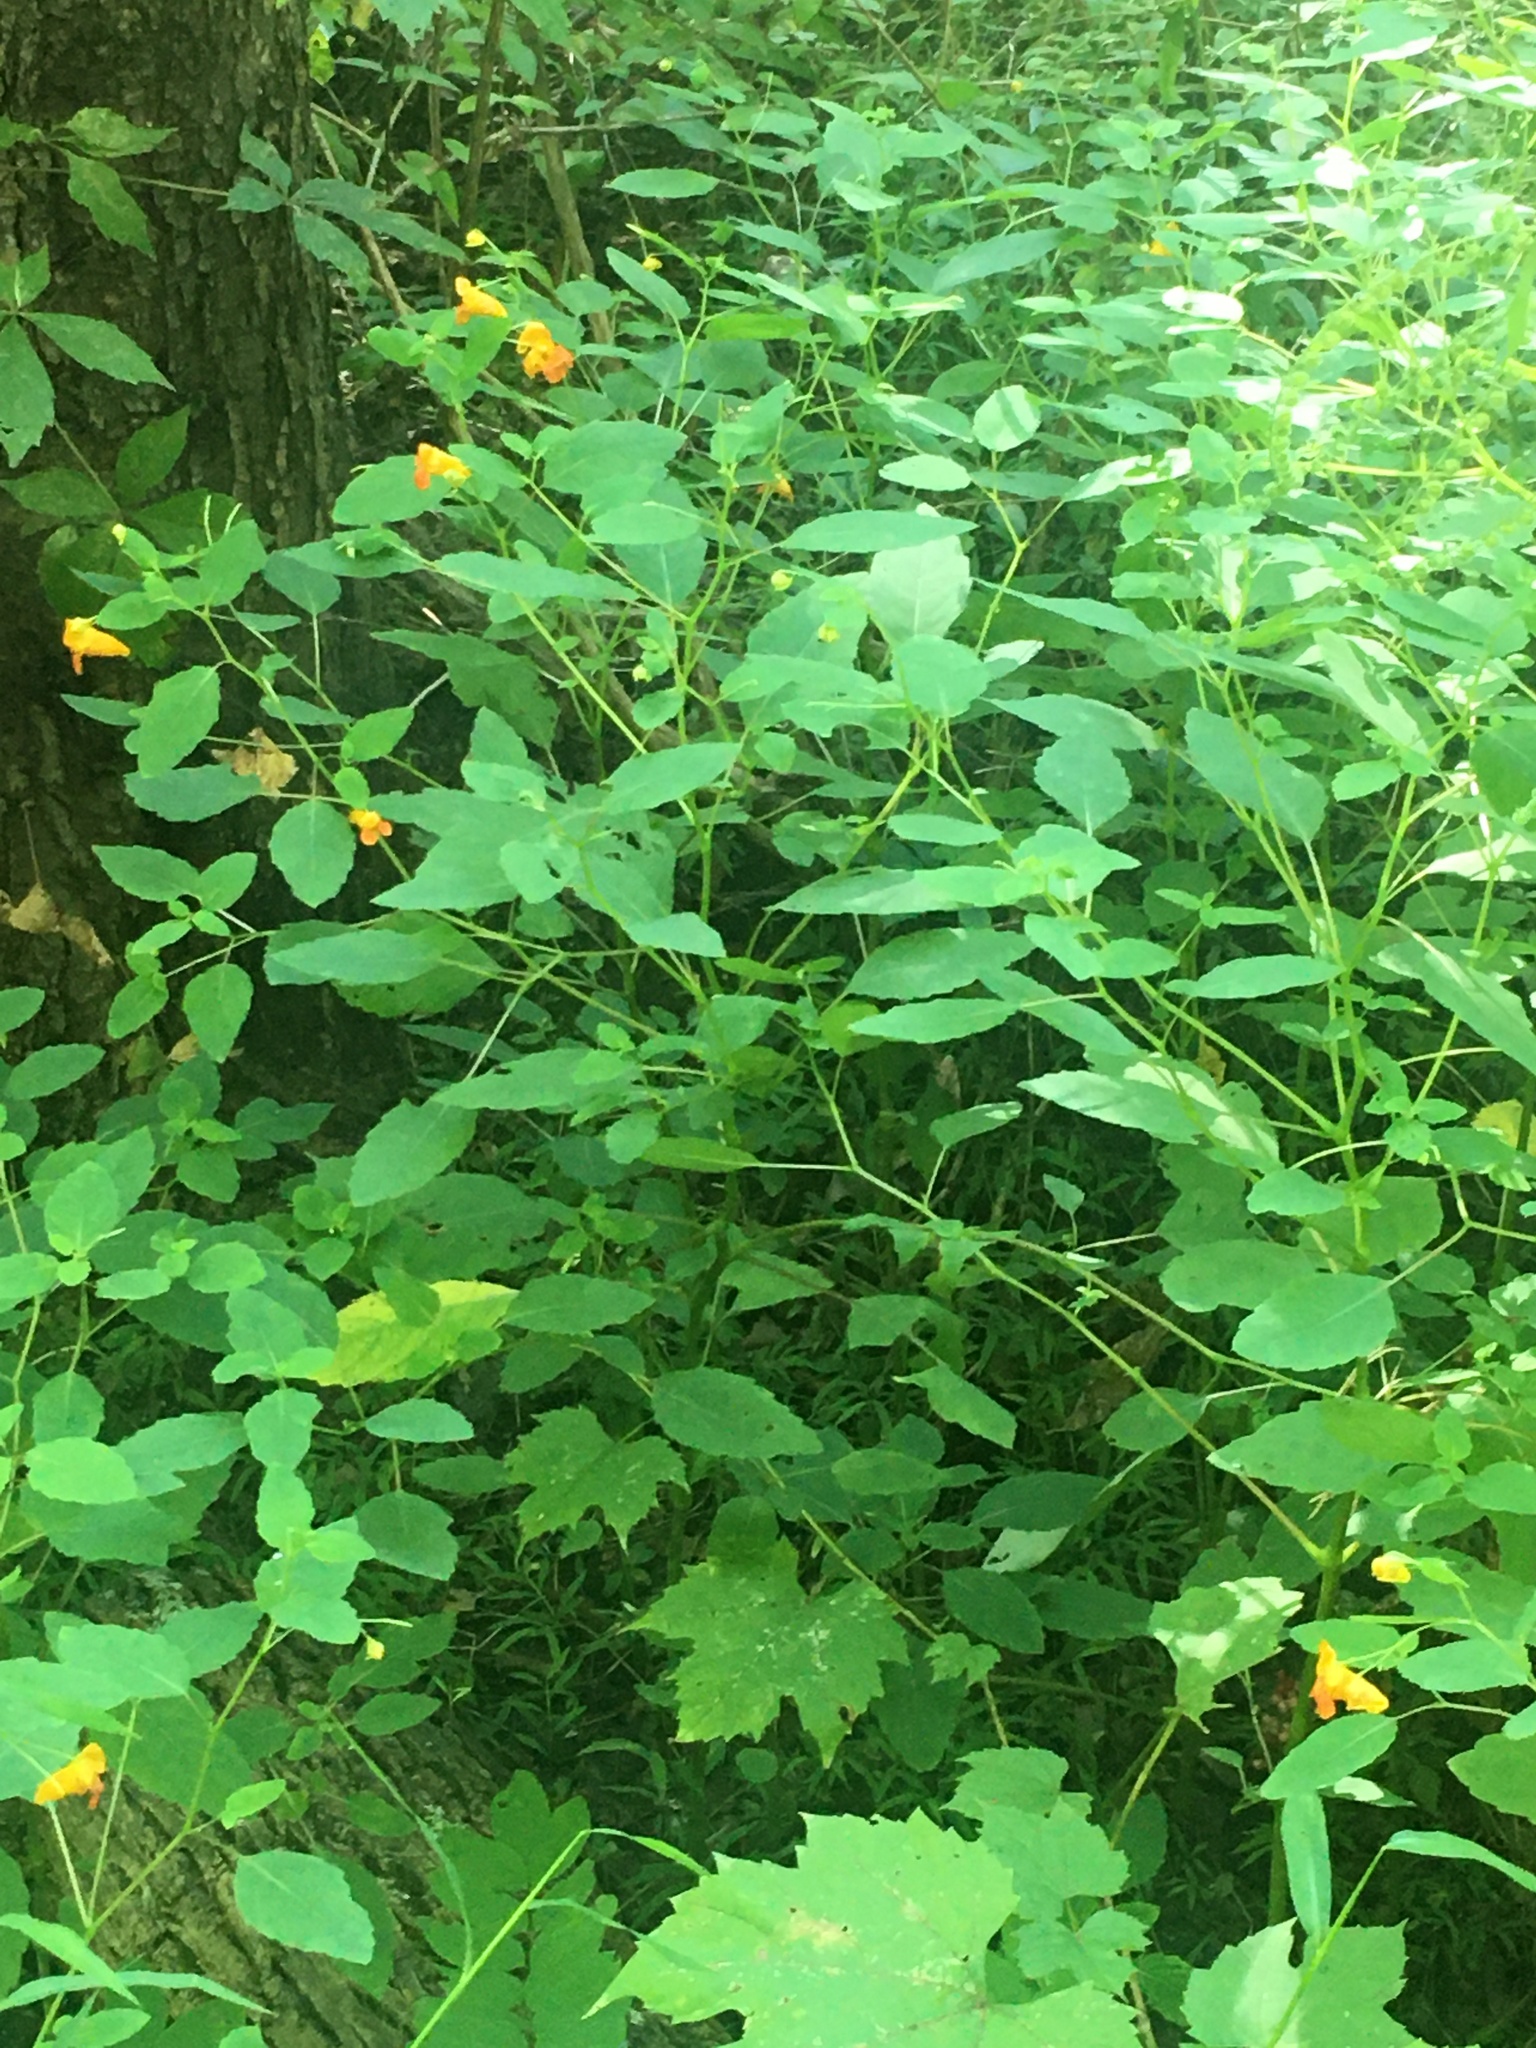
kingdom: Plantae
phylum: Tracheophyta
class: Magnoliopsida
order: Ericales
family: Balsaminaceae
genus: Impatiens
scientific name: Impatiens capensis
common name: Orange balsam
